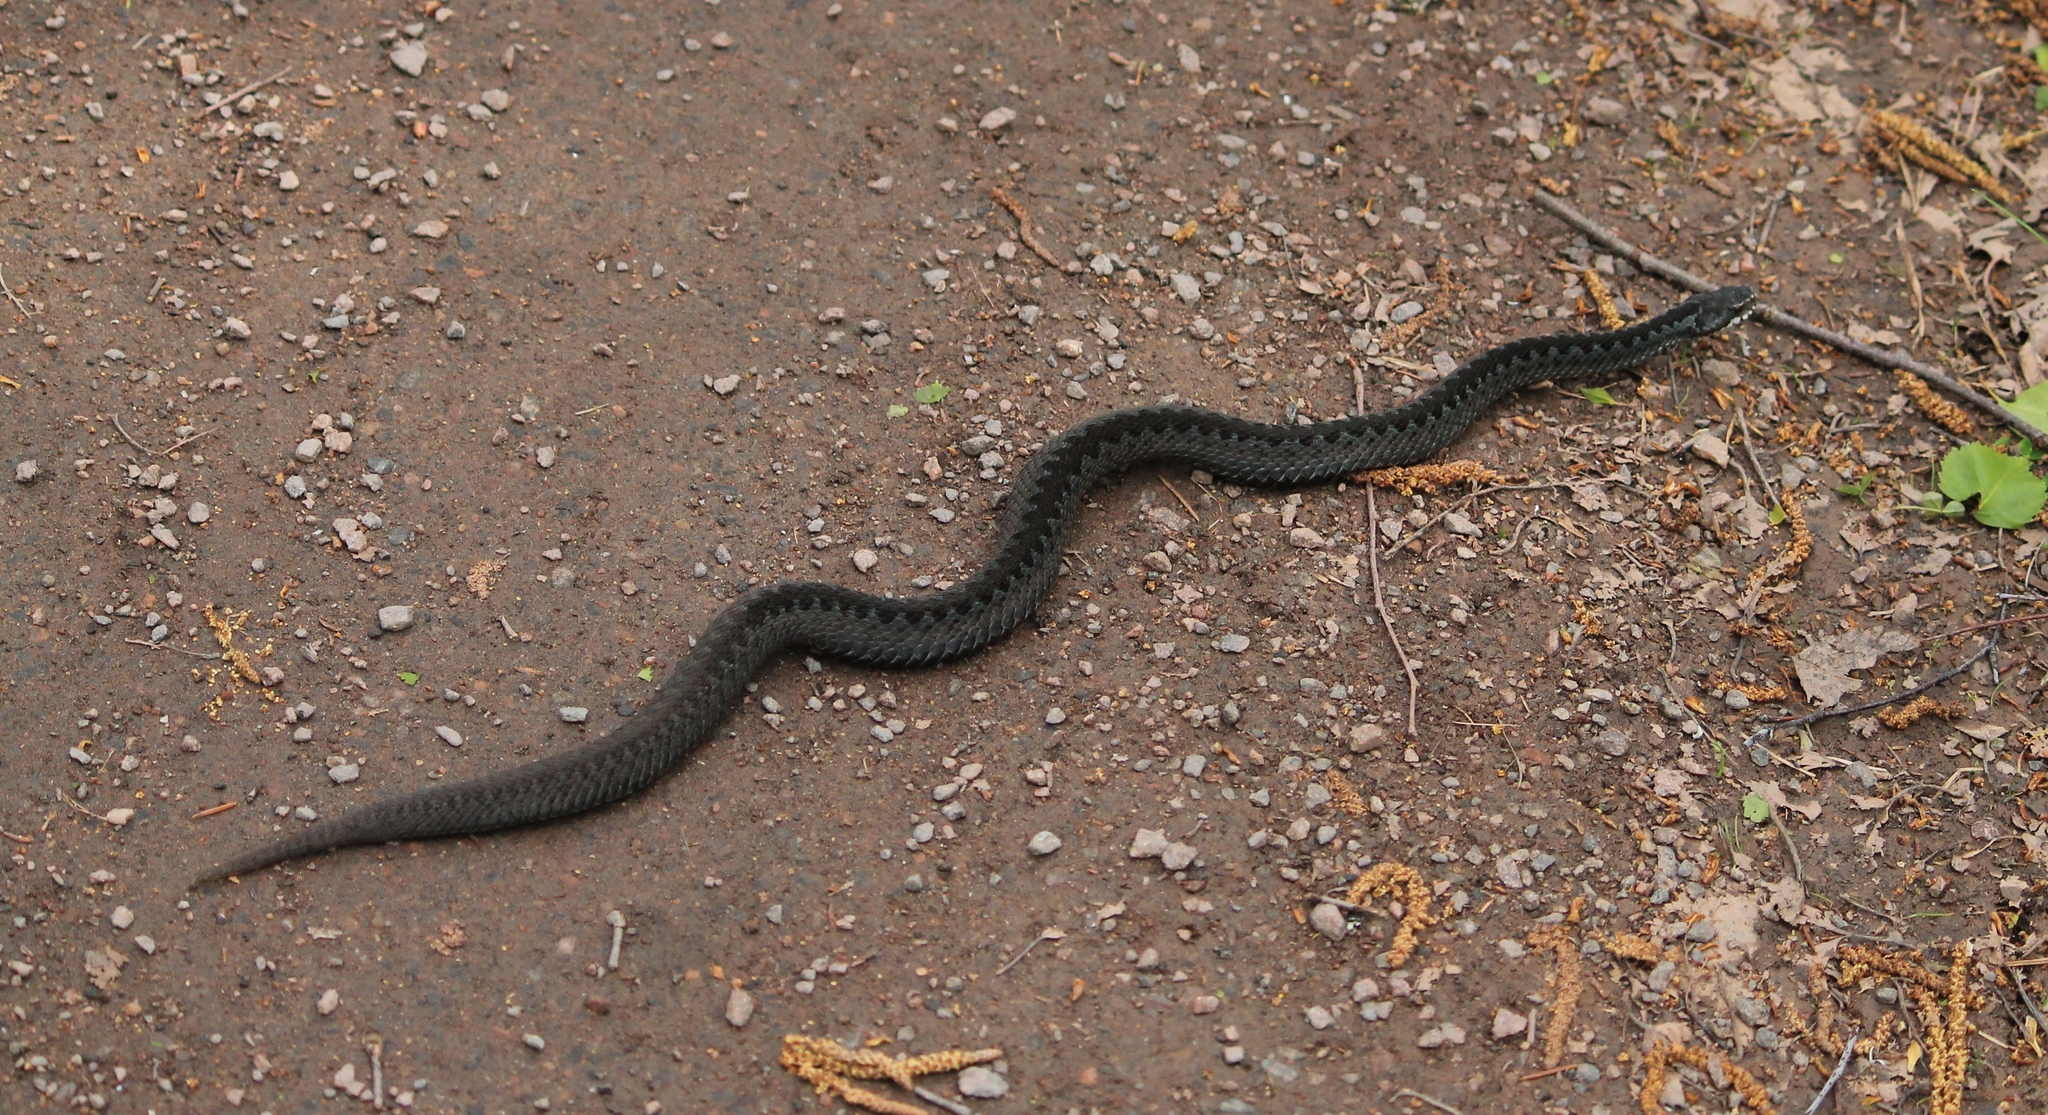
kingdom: Animalia
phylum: Chordata
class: Squamata
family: Viperidae
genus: Vipera
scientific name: Vipera berus
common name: Adder
